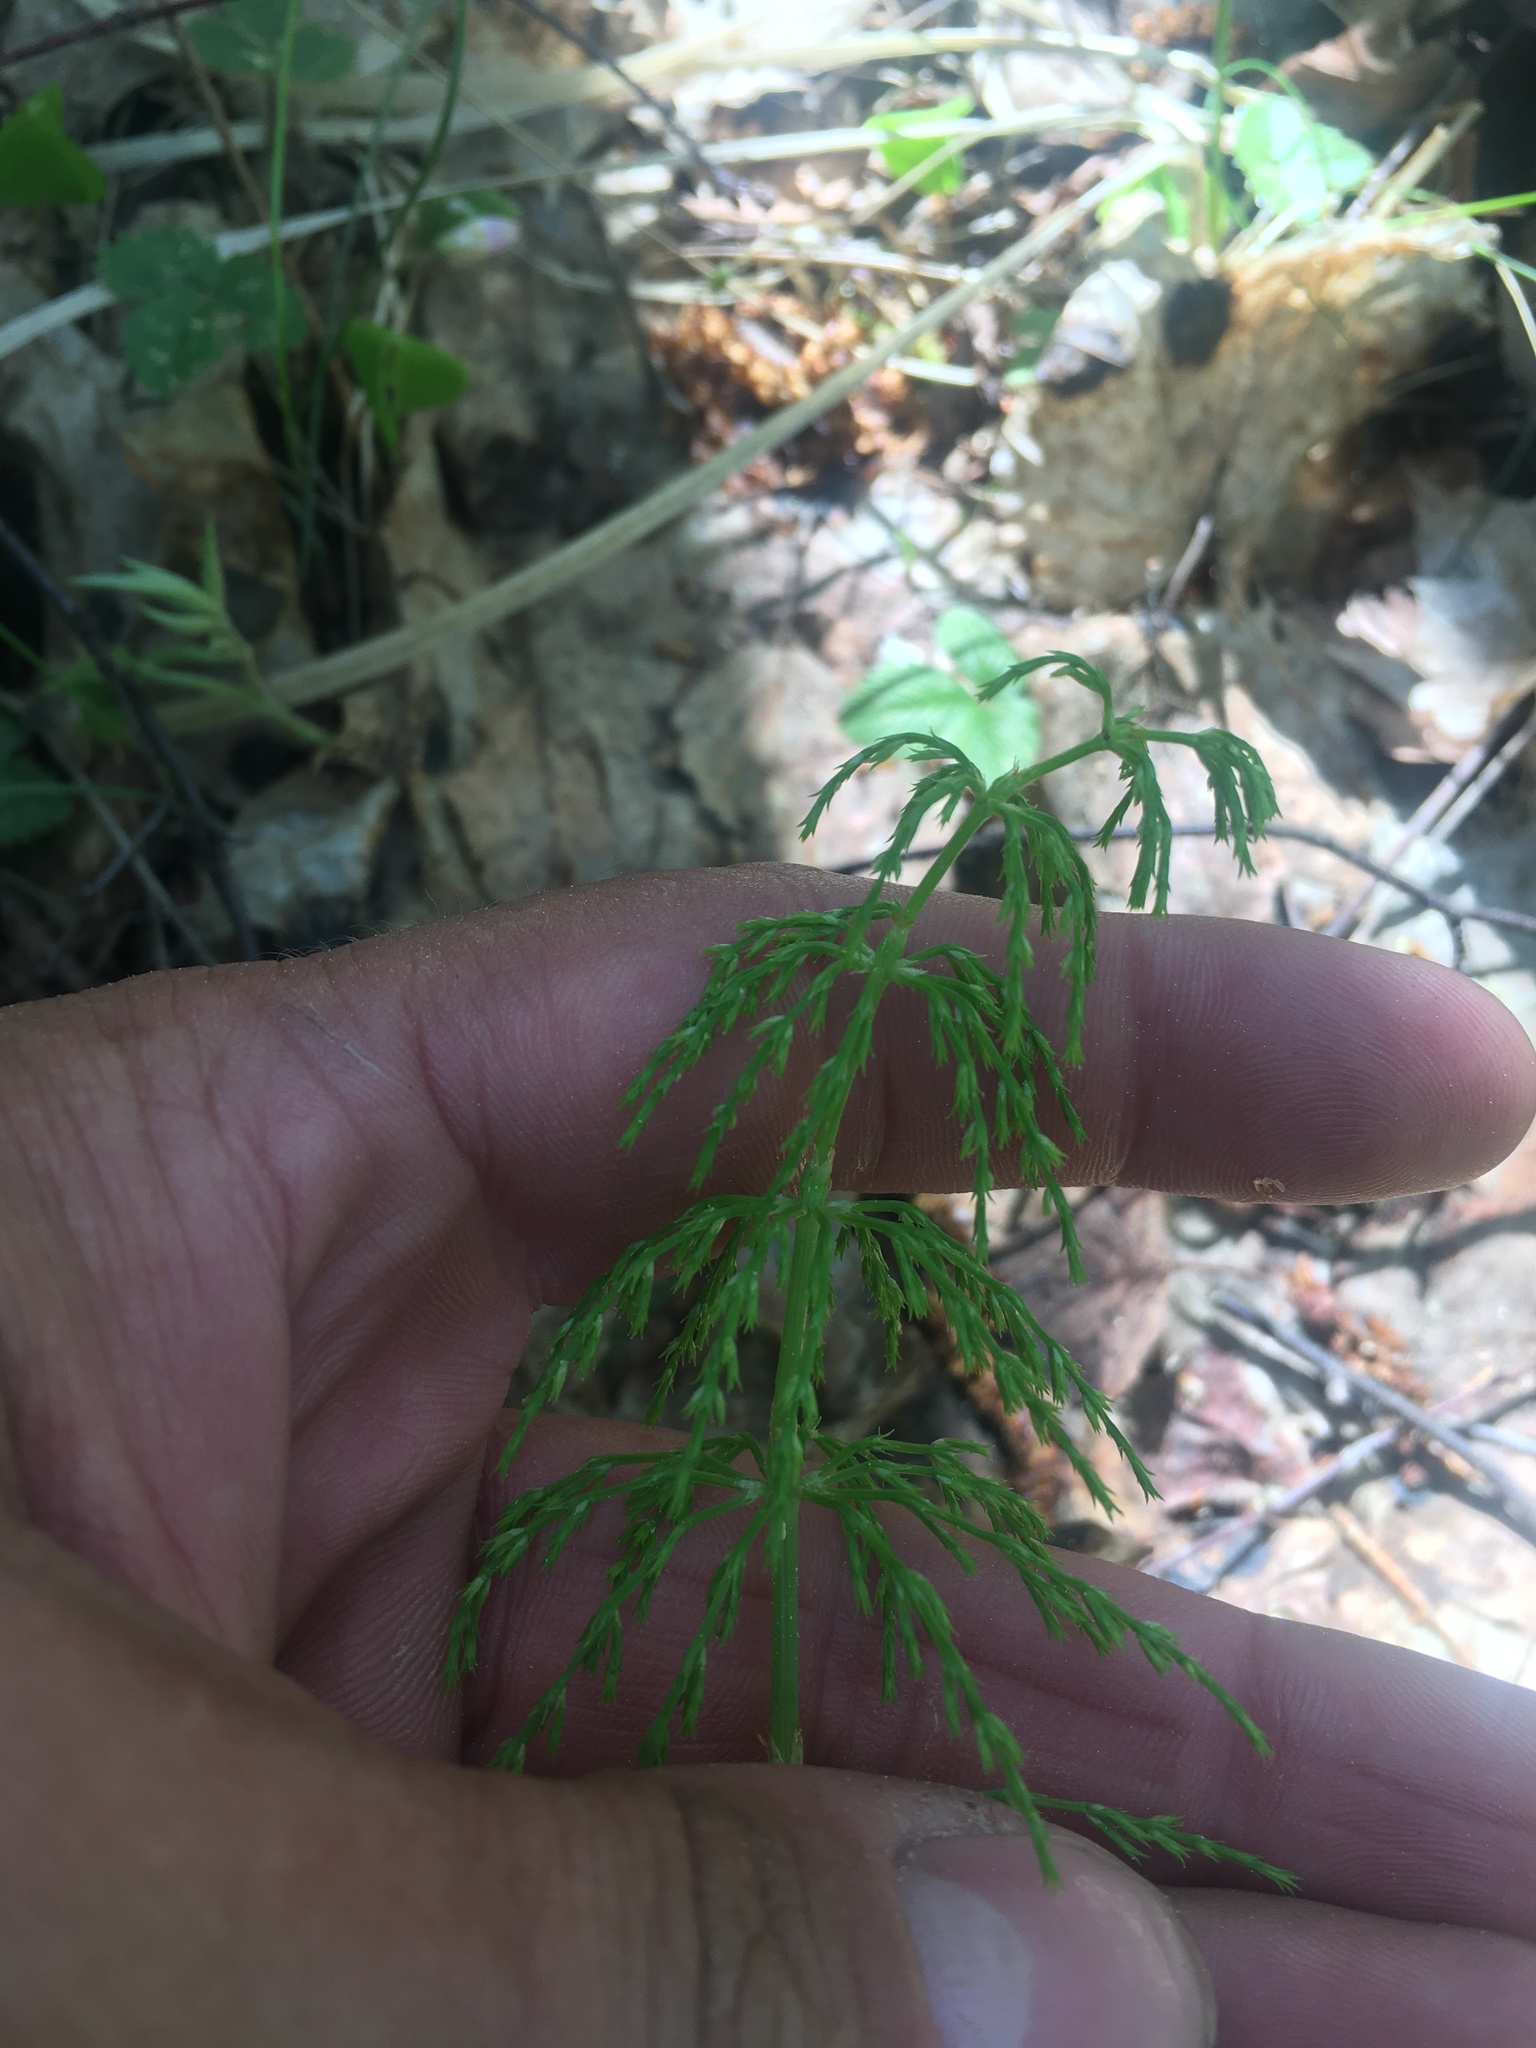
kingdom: Plantae
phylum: Tracheophyta
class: Polypodiopsida
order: Equisetales
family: Equisetaceae
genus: Equisetum
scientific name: Equisetum sylvaticum
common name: Wood horsetail
